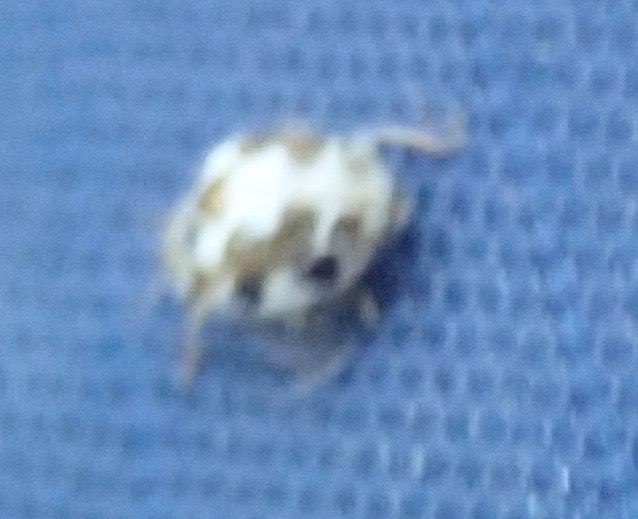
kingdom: Animalia
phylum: Arthropoda
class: Insecta
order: Coleoptera
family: Coccinellidae
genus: Psyllobora
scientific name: Psyllobora vigintimaculata
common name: Ladybird beetle
